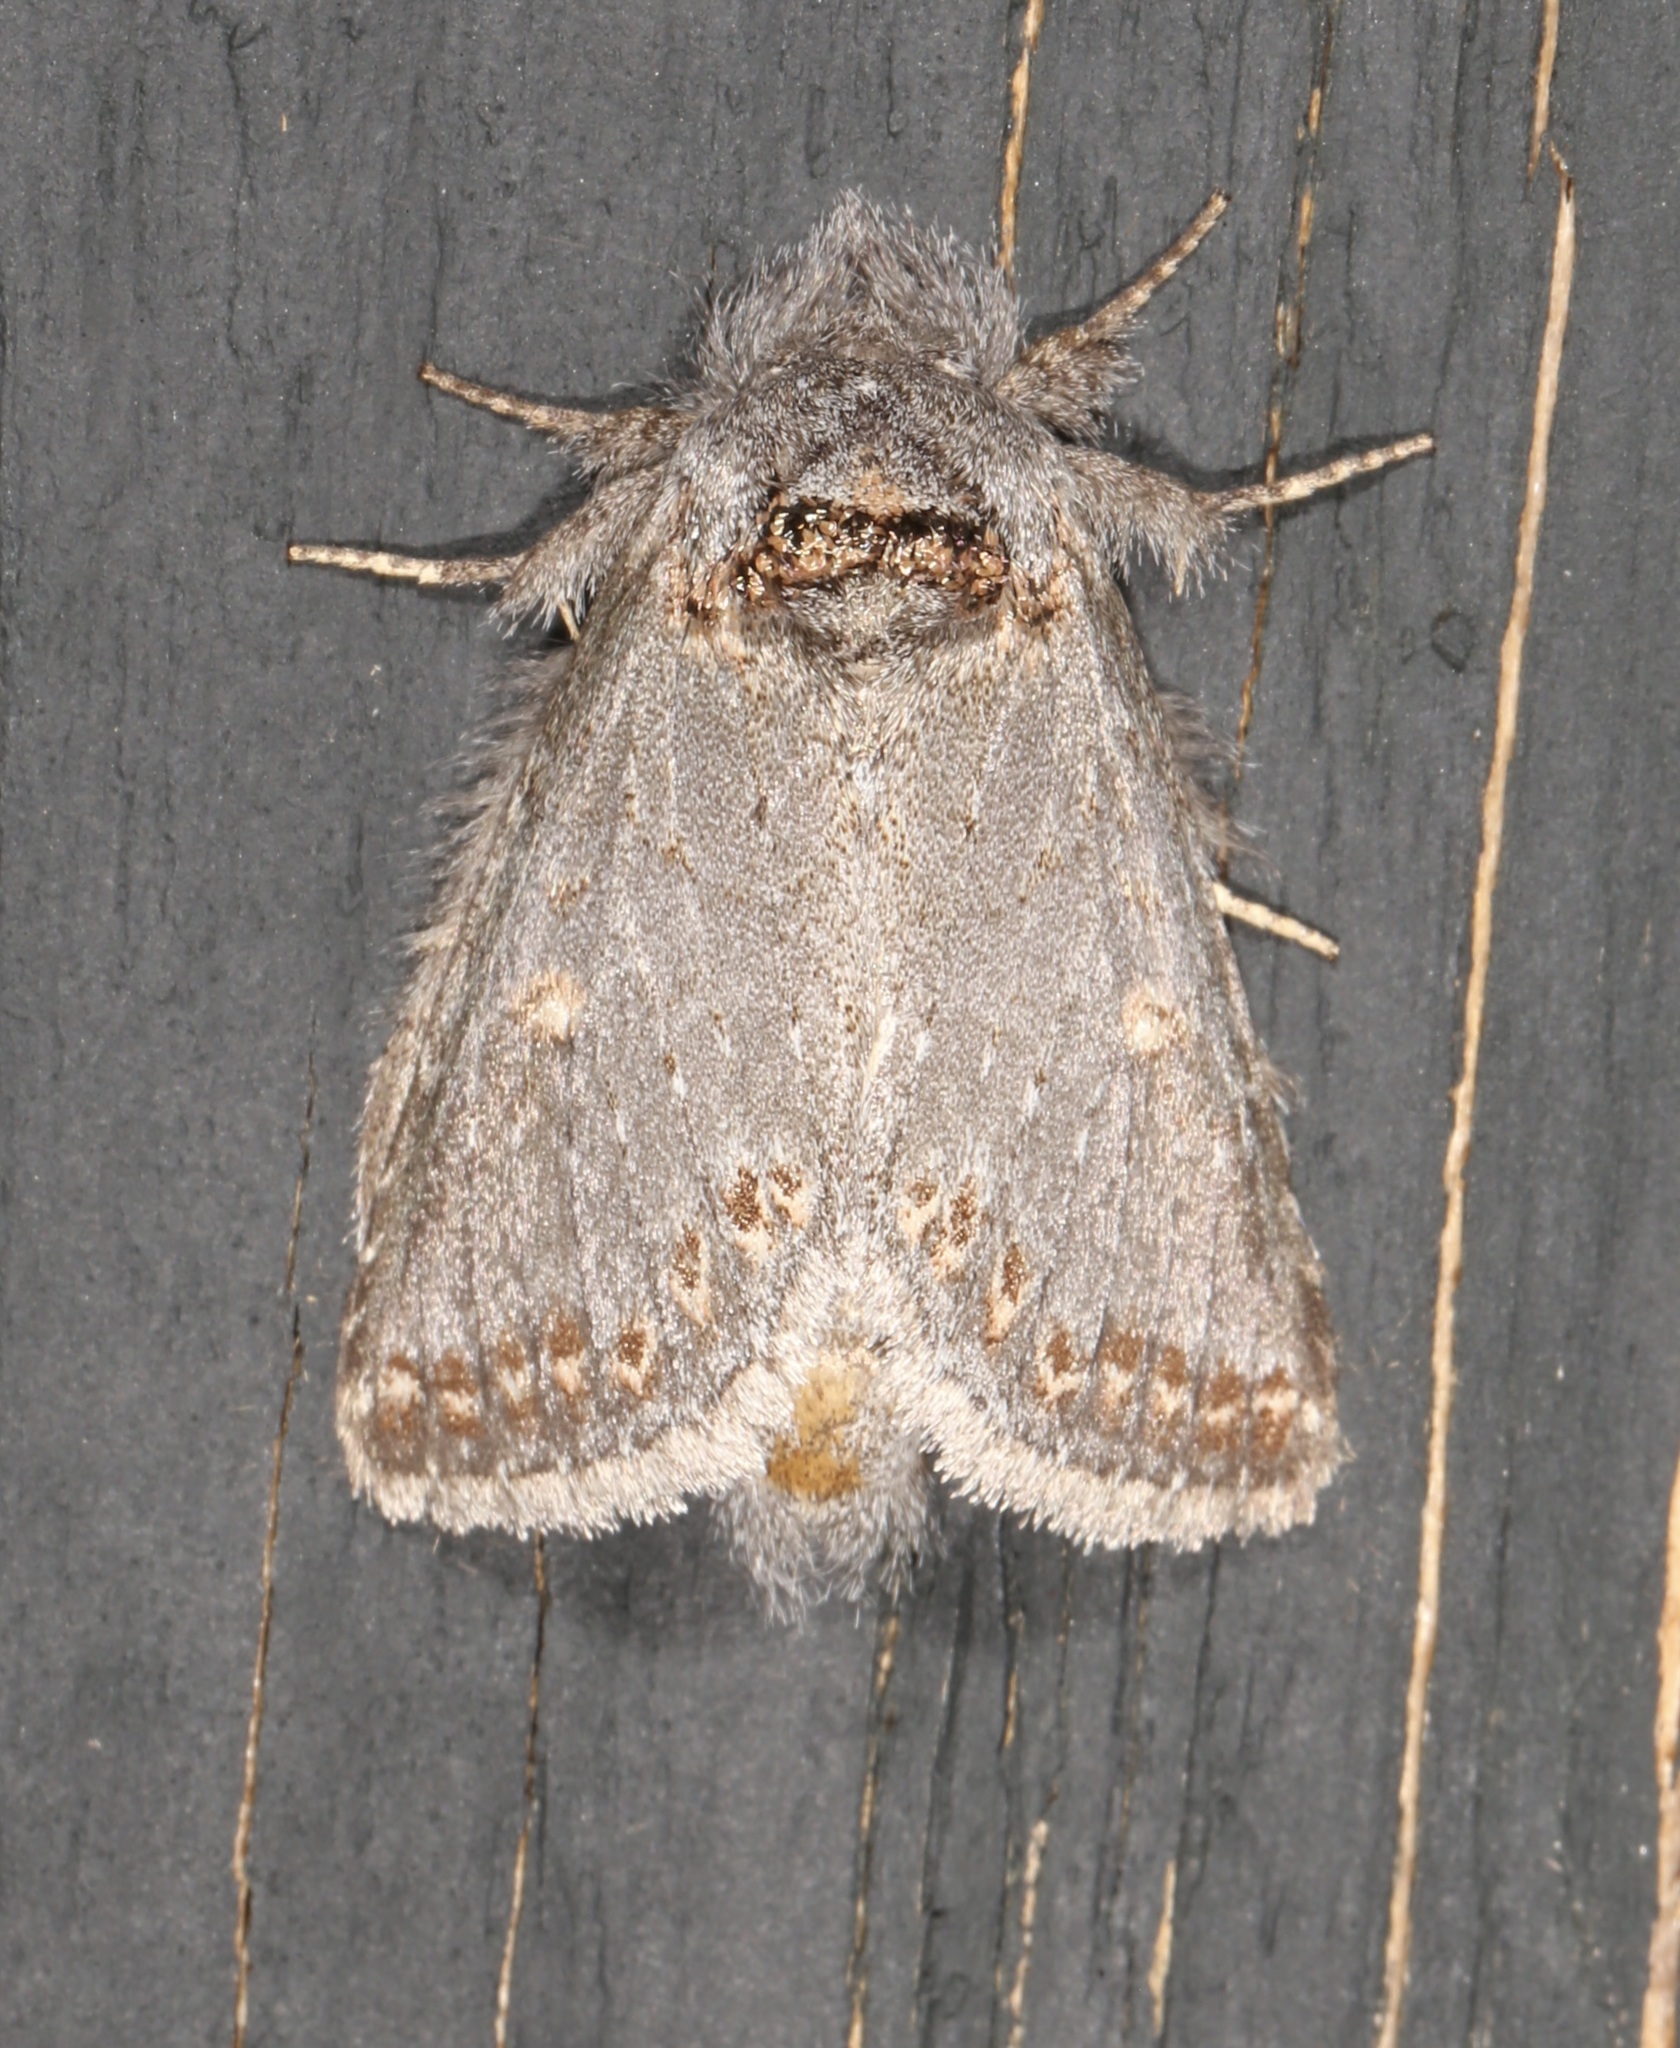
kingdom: Animalia
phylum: Arthropoda
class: Insecta
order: Lepidoptera
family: Notodontidae
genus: Theroa
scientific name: Theroa zethus
